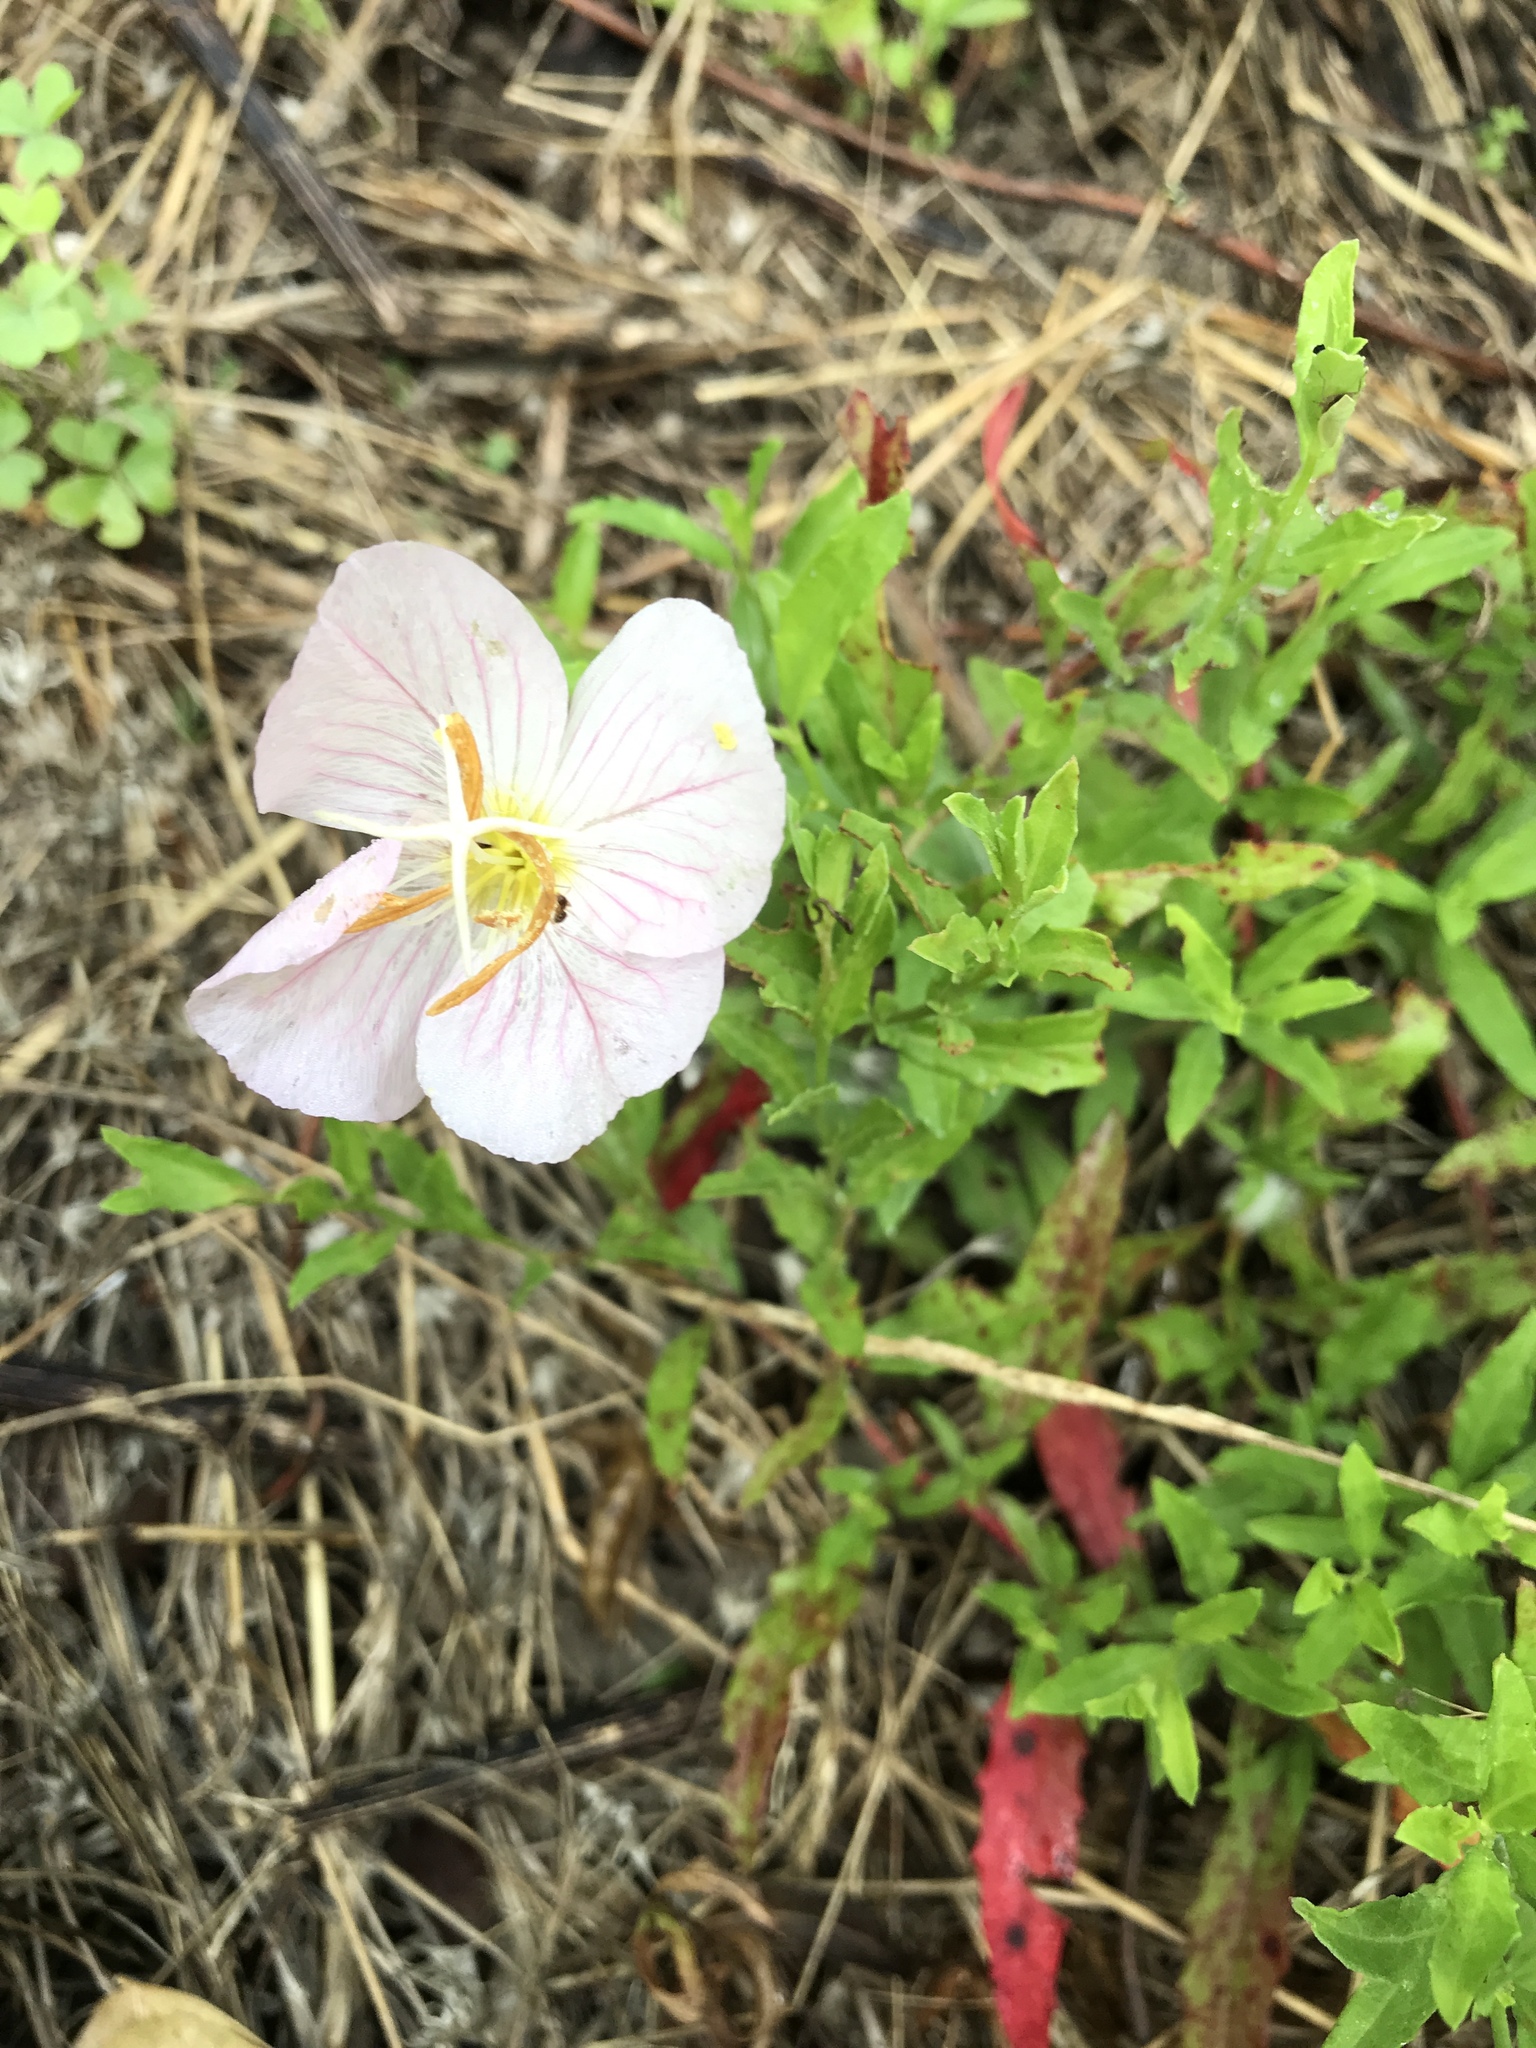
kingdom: Plantae
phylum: Tracheophyta
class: Magnoliopsida
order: Myrtales
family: Onagraceae
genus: Oenothera
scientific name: Oenothera speciosa
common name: White evening-primrose
